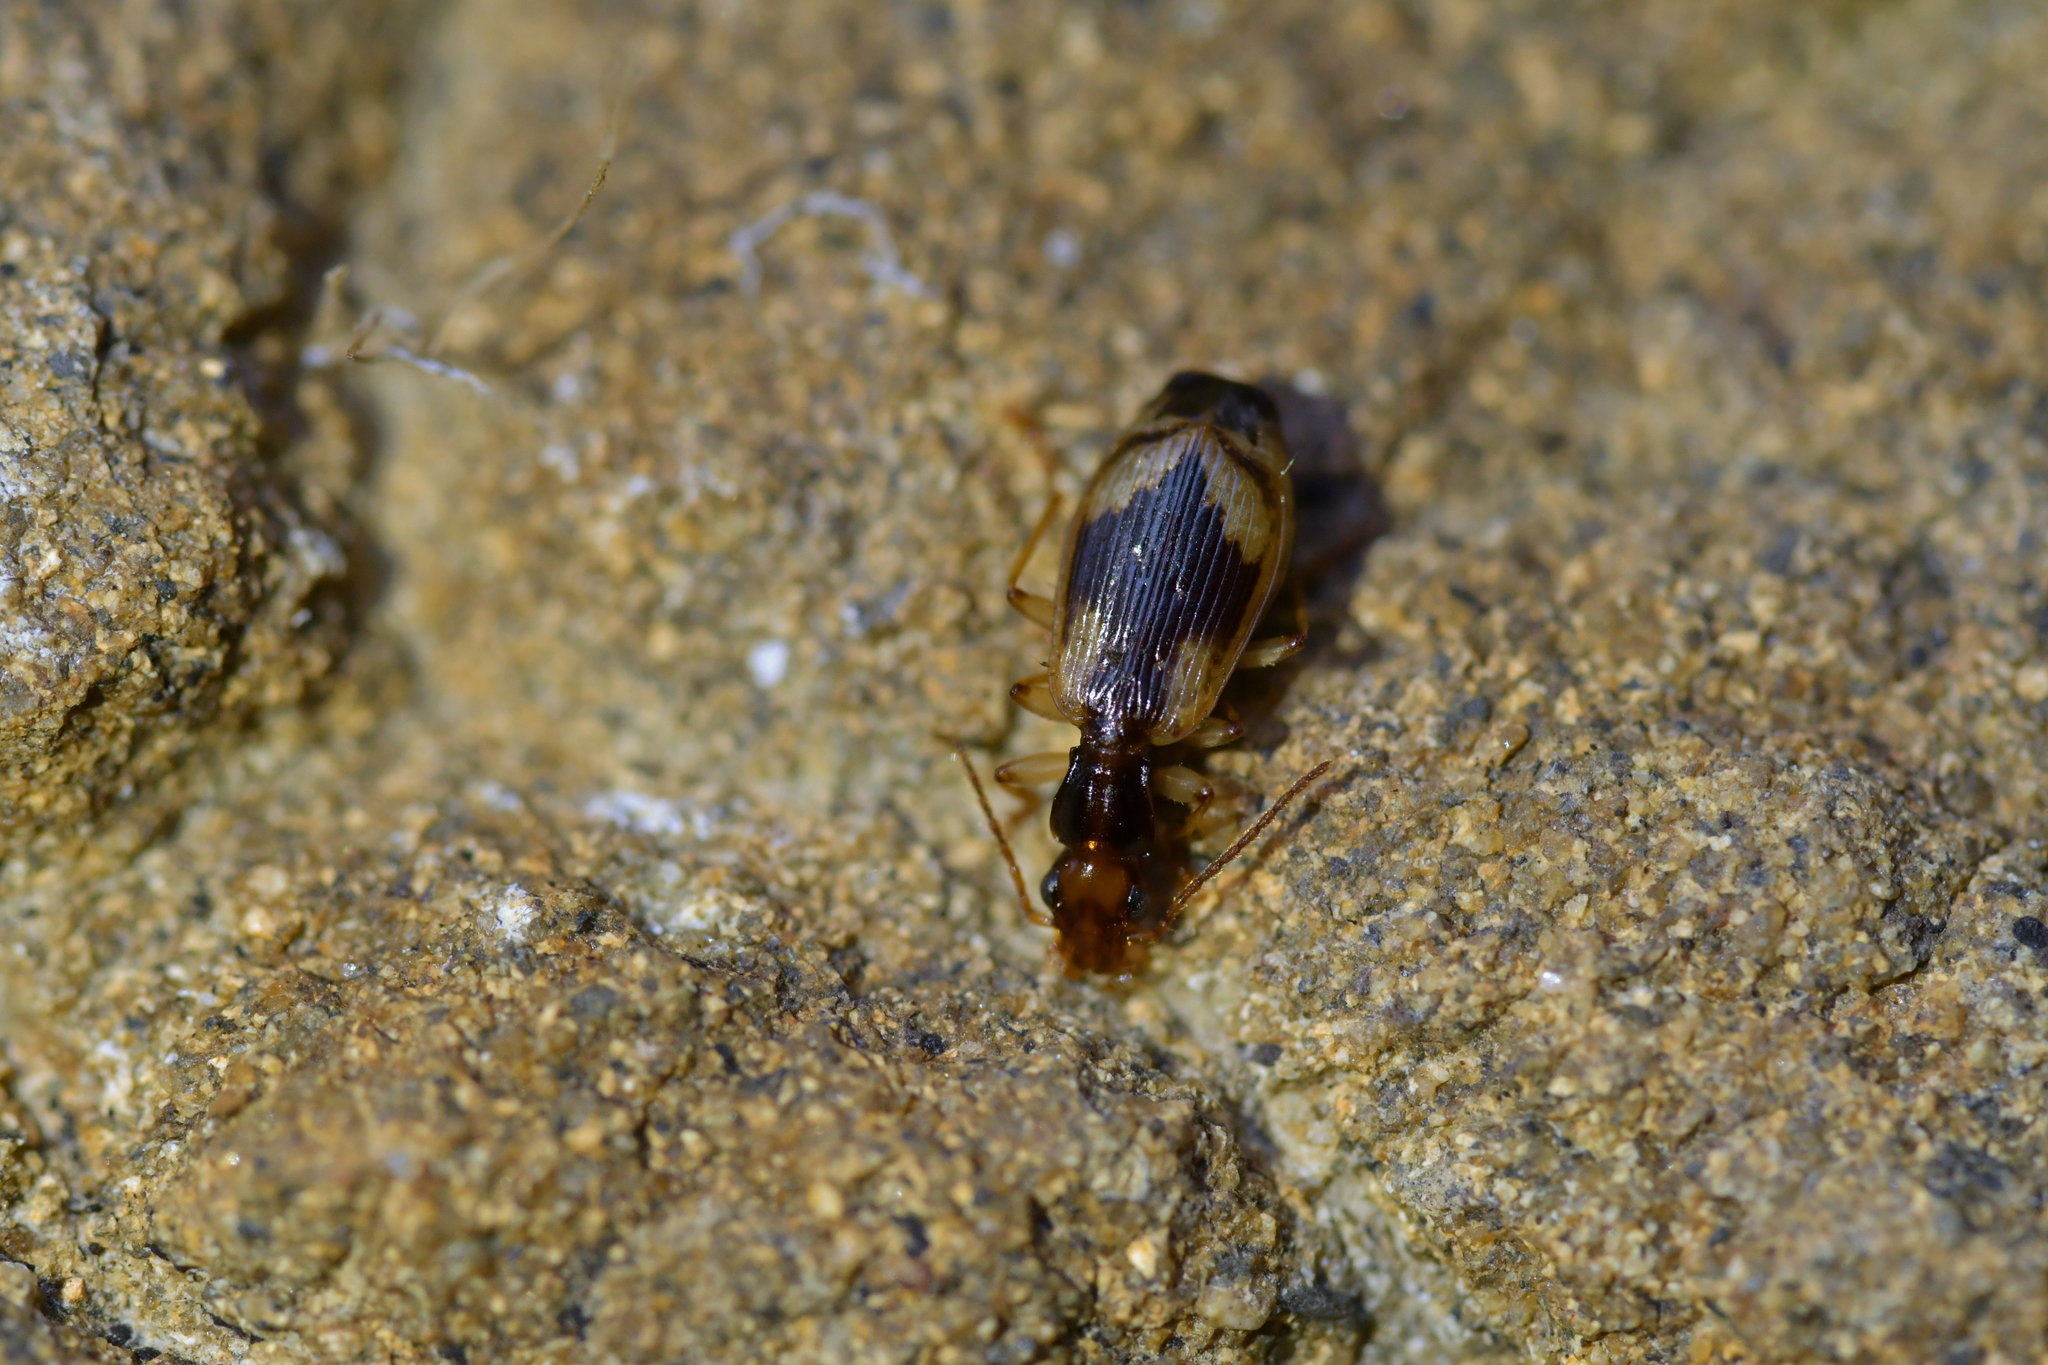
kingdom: Animalia
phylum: Arthropoda
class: Insecta
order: Coleoptera
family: Carabidae
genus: Demetrida
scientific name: Demetrida nasuta
